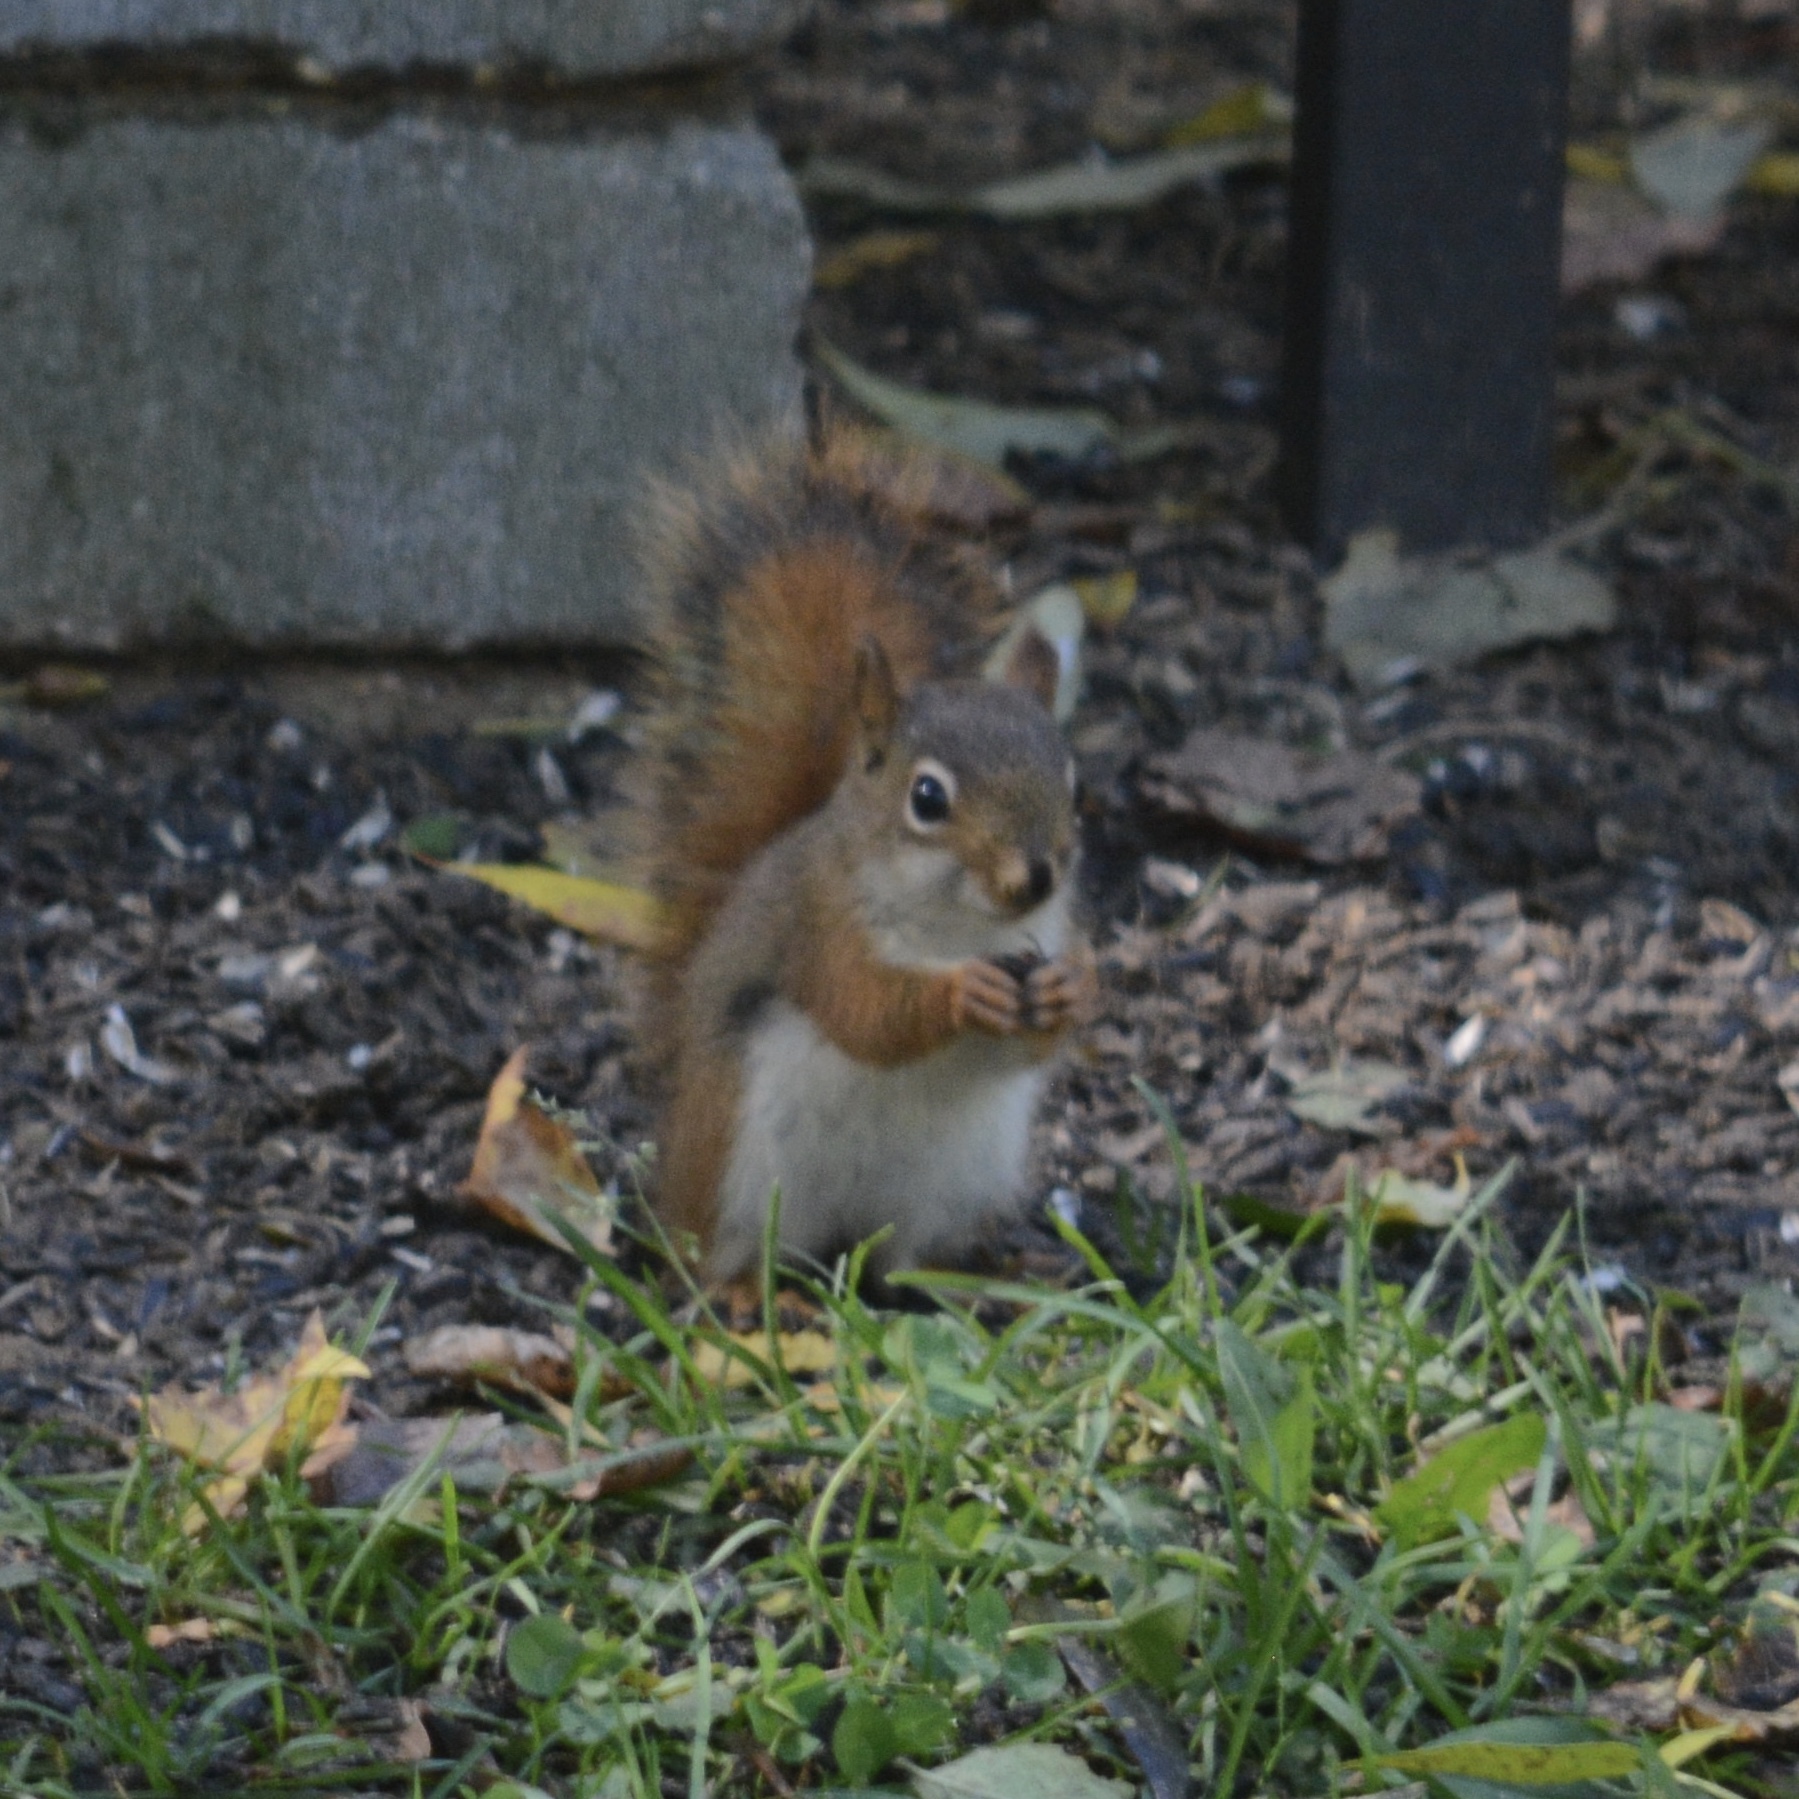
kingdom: Animalia
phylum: Chordata
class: Mammalia
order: Rodentia
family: Sciuridae
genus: Tamiasciurus
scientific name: Tamiasciurus hudsonicus
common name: Red squirrel
